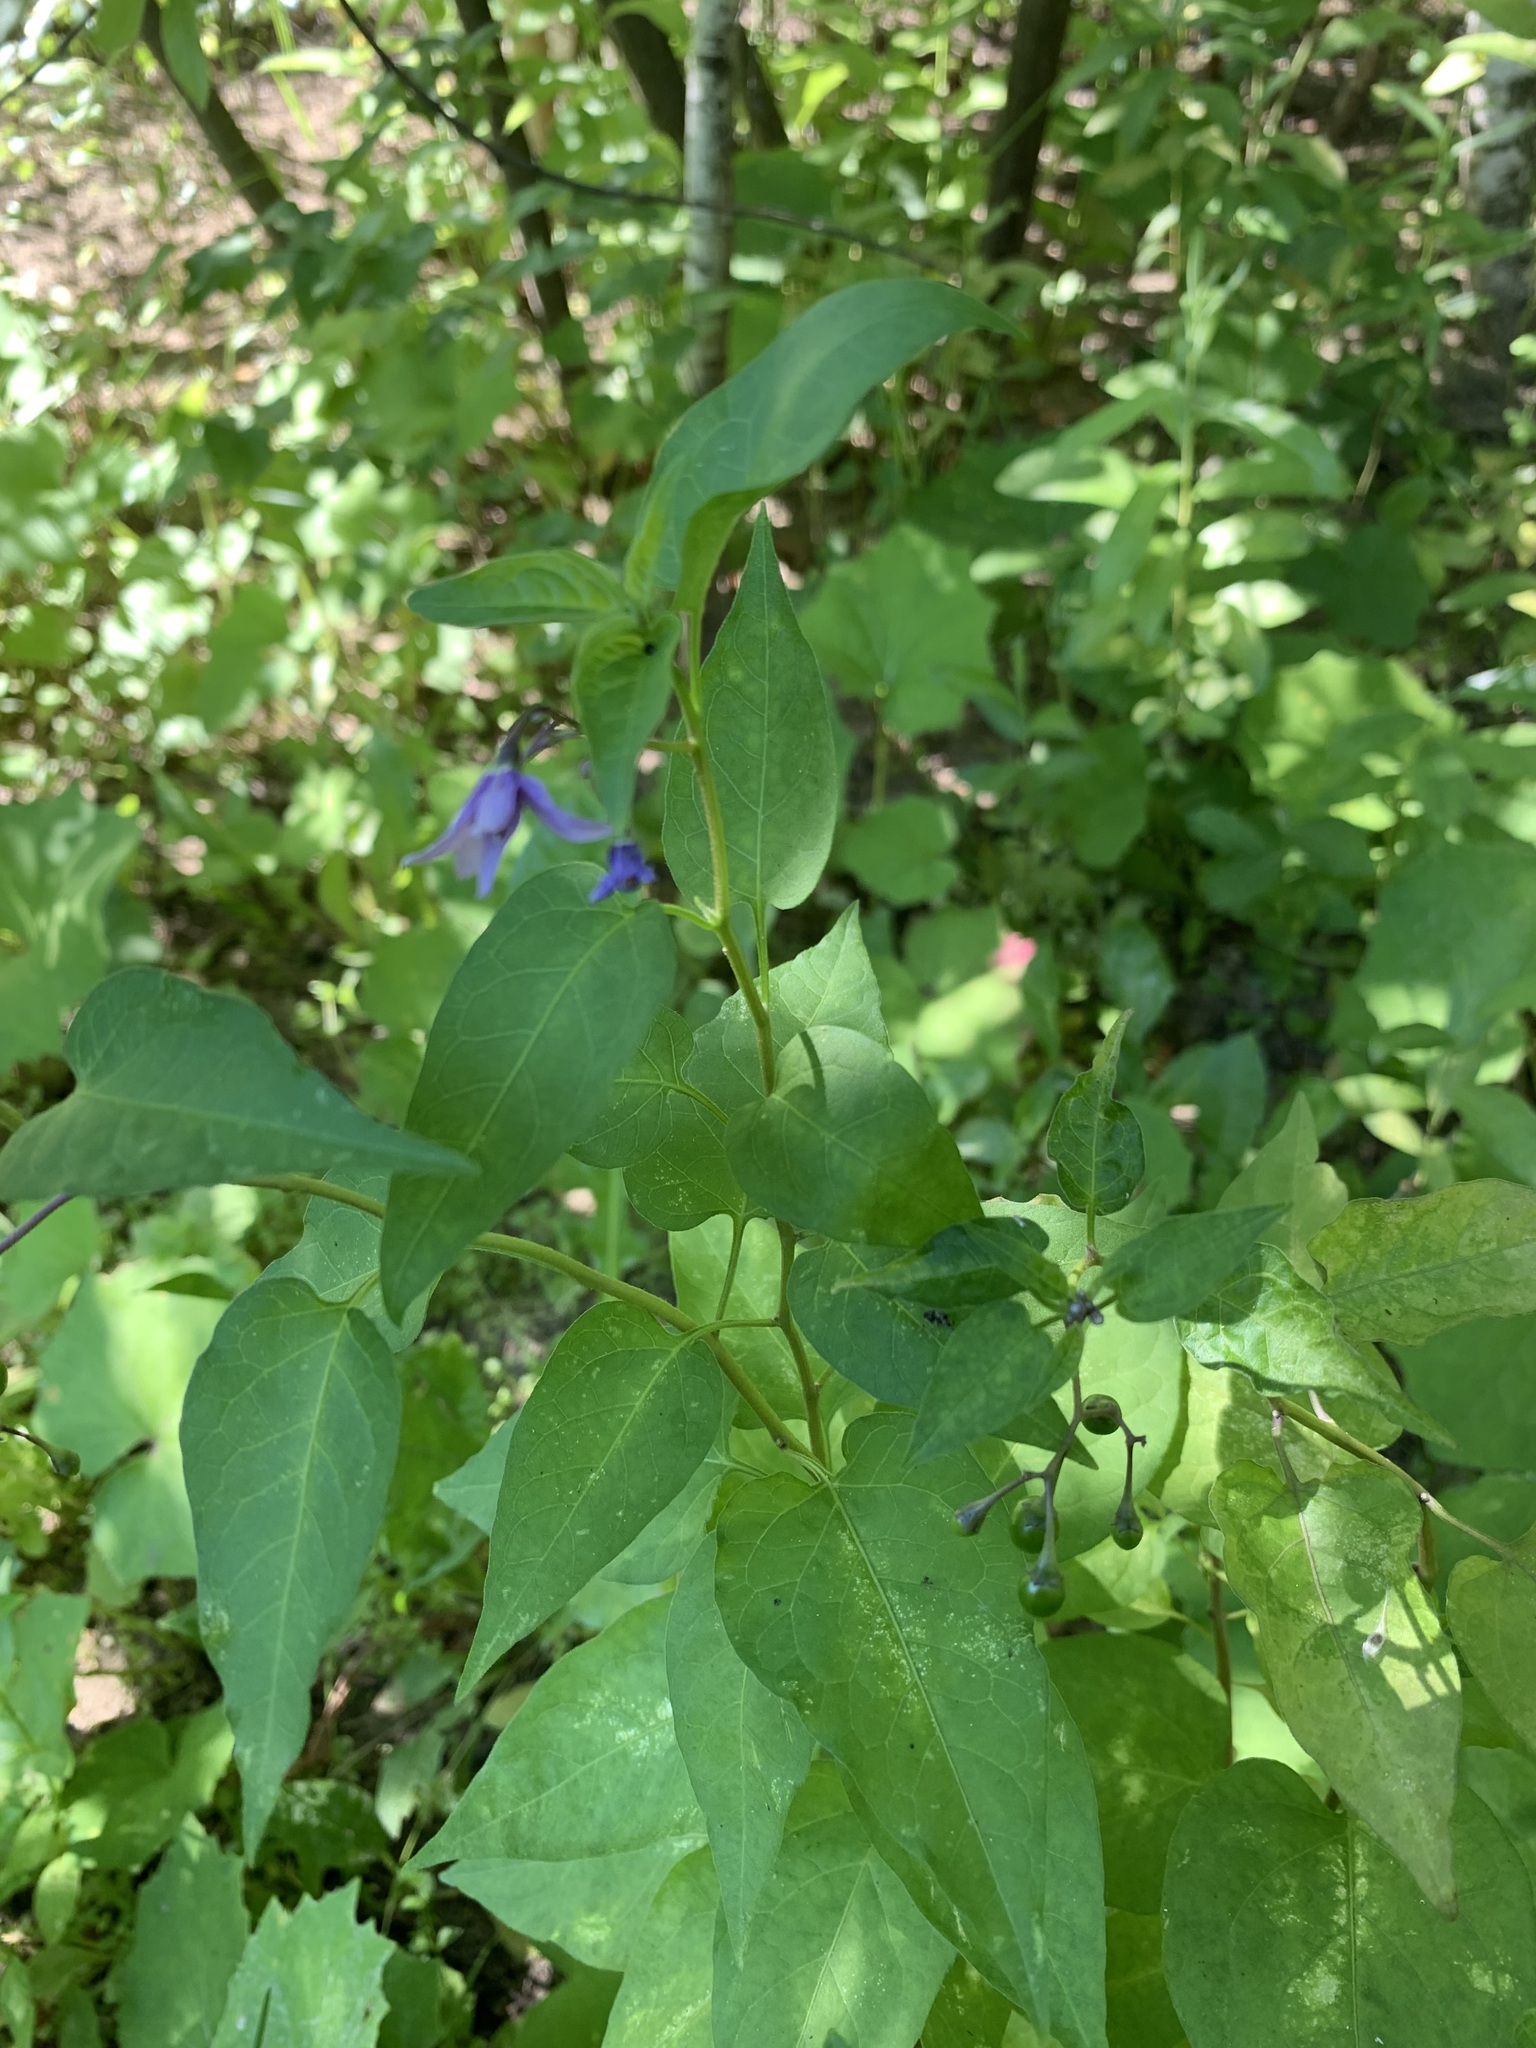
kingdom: Plantae
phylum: Tracheophyta
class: Magnoliopsida
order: Solanales
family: Solanaceae
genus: Solanum
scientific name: Solanum dulcamara
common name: Climbing nightshade
